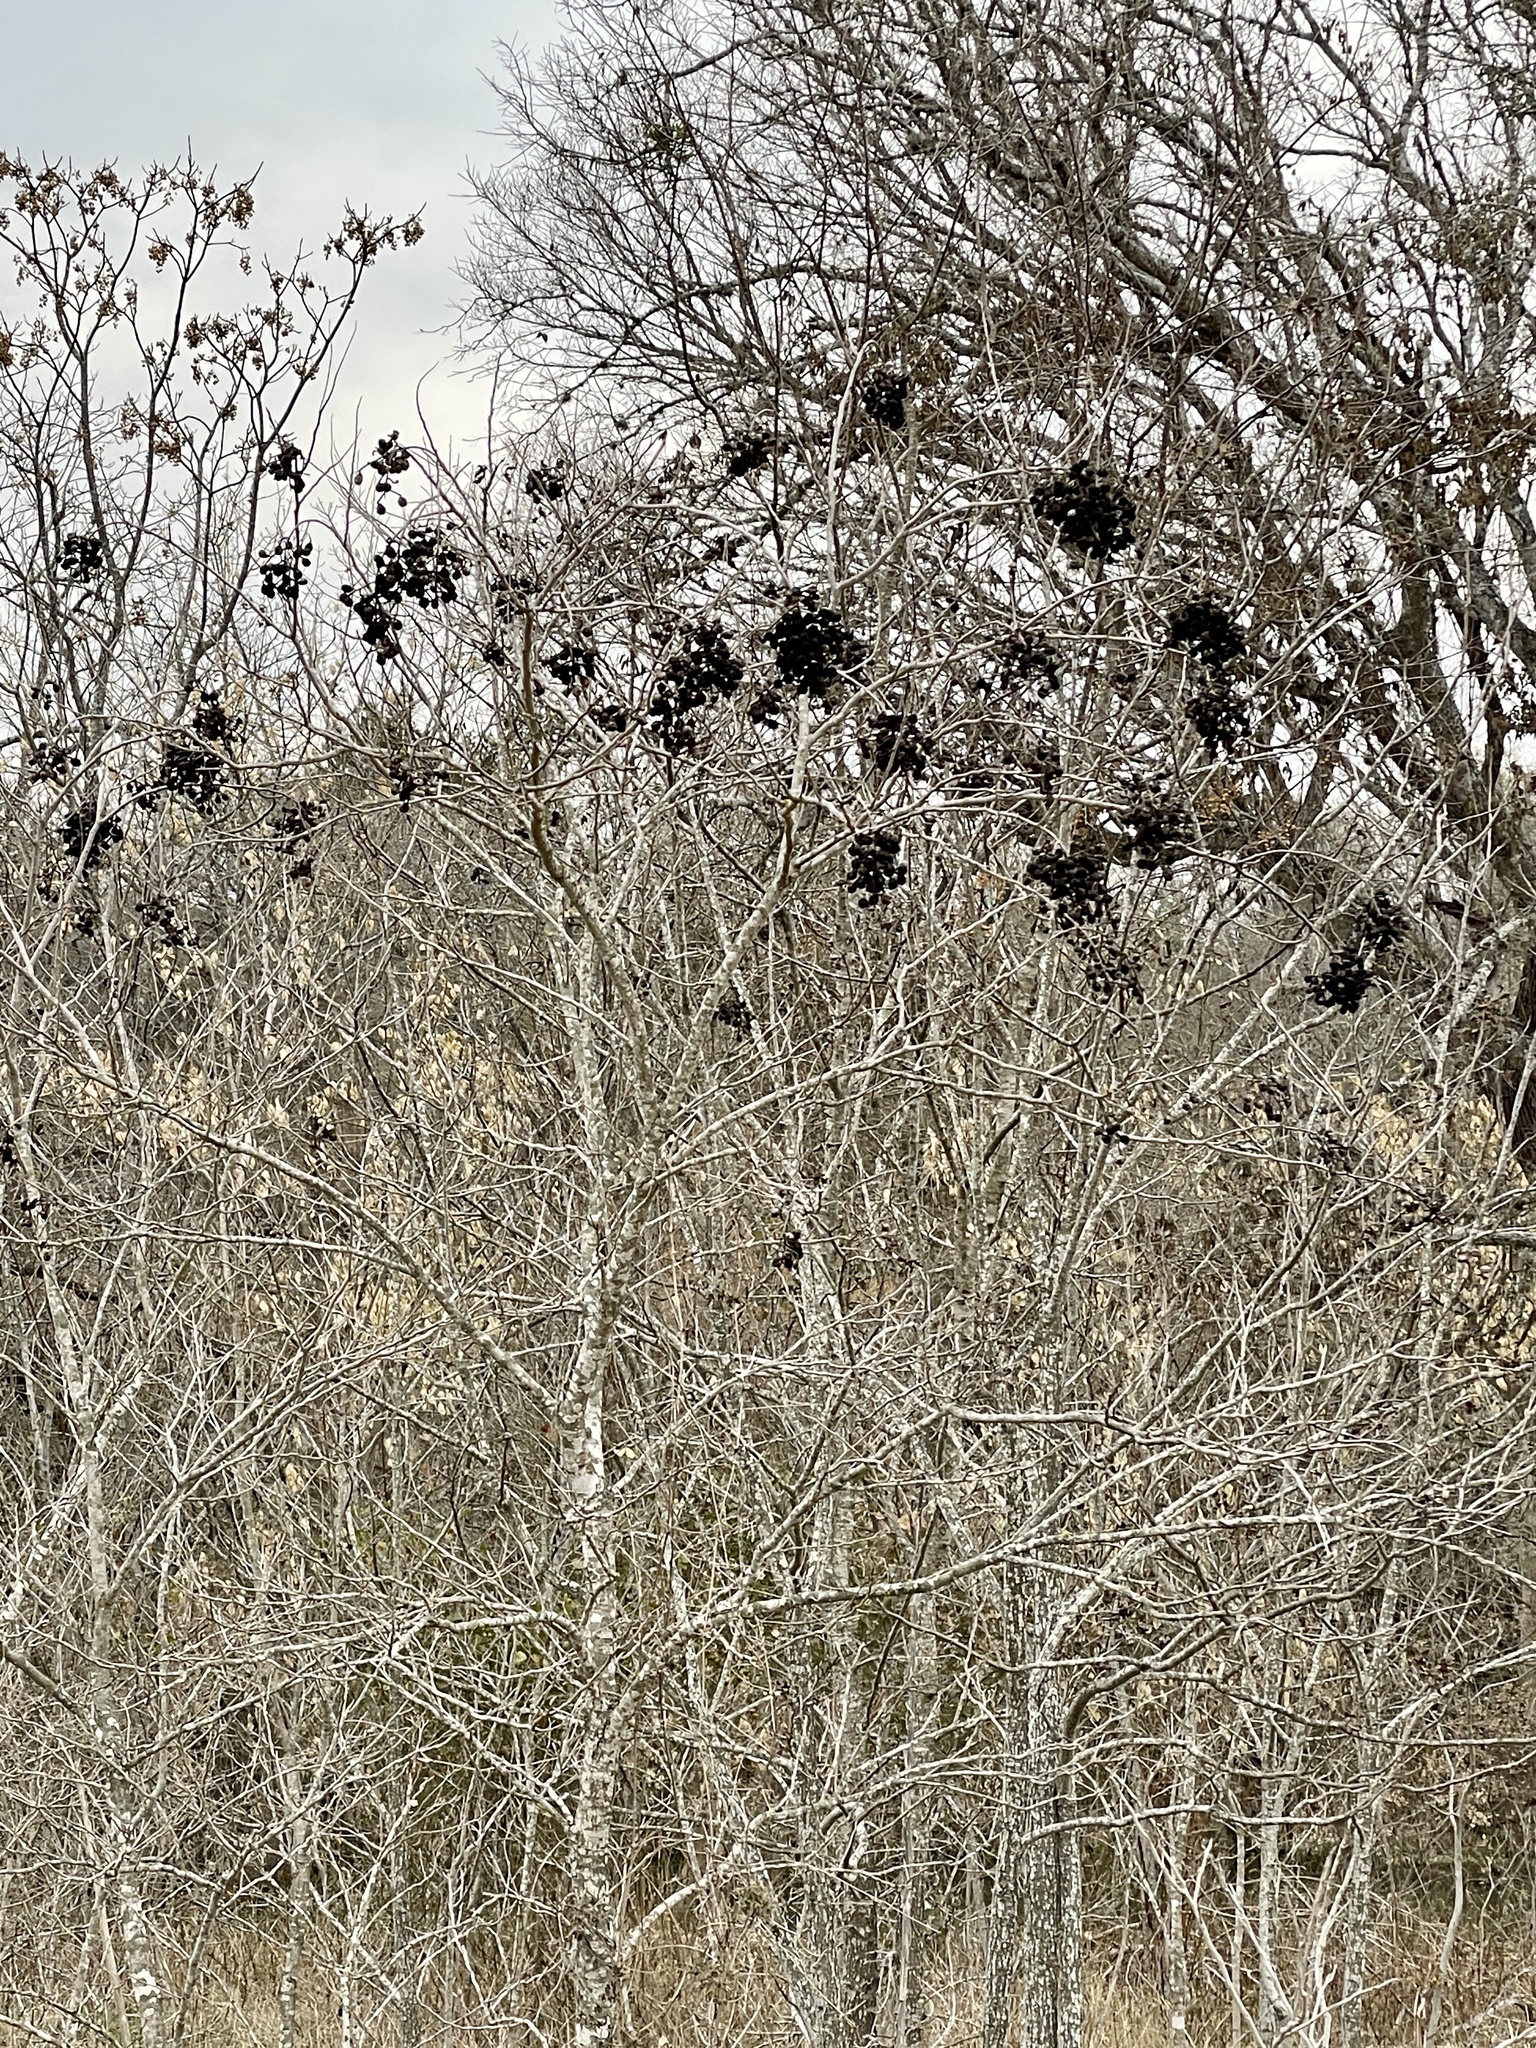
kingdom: Plantae
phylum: Tracheophyta
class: Magnoliopsida
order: Sapindales
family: Sapindaceae
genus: Sapindus
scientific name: Sapindus drummondii
